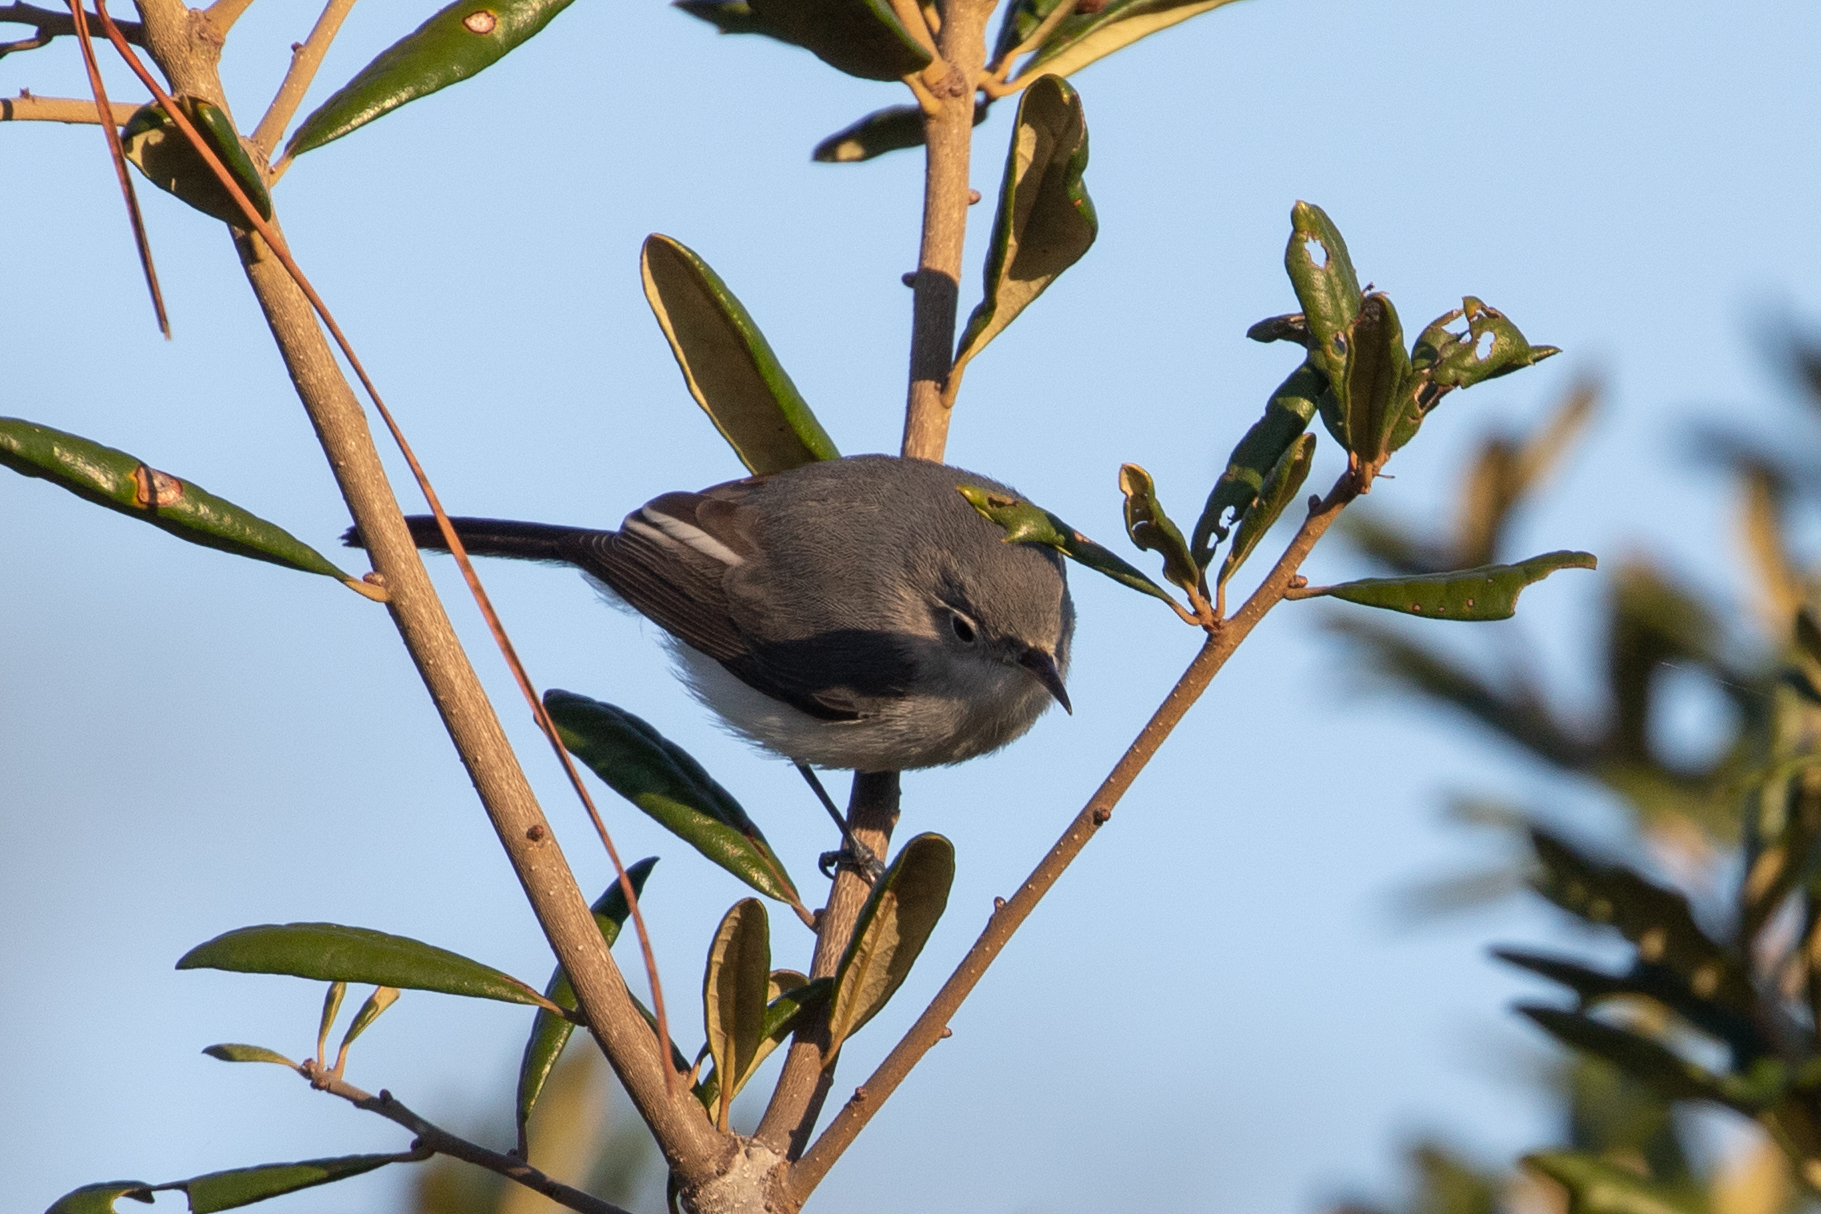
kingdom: Animalia
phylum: Chordata
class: Aves
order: Passeriformes
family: Polioptilidae
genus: Polioptila
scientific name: Polioptila caerulea
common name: Blue-gray gnatcatcher
